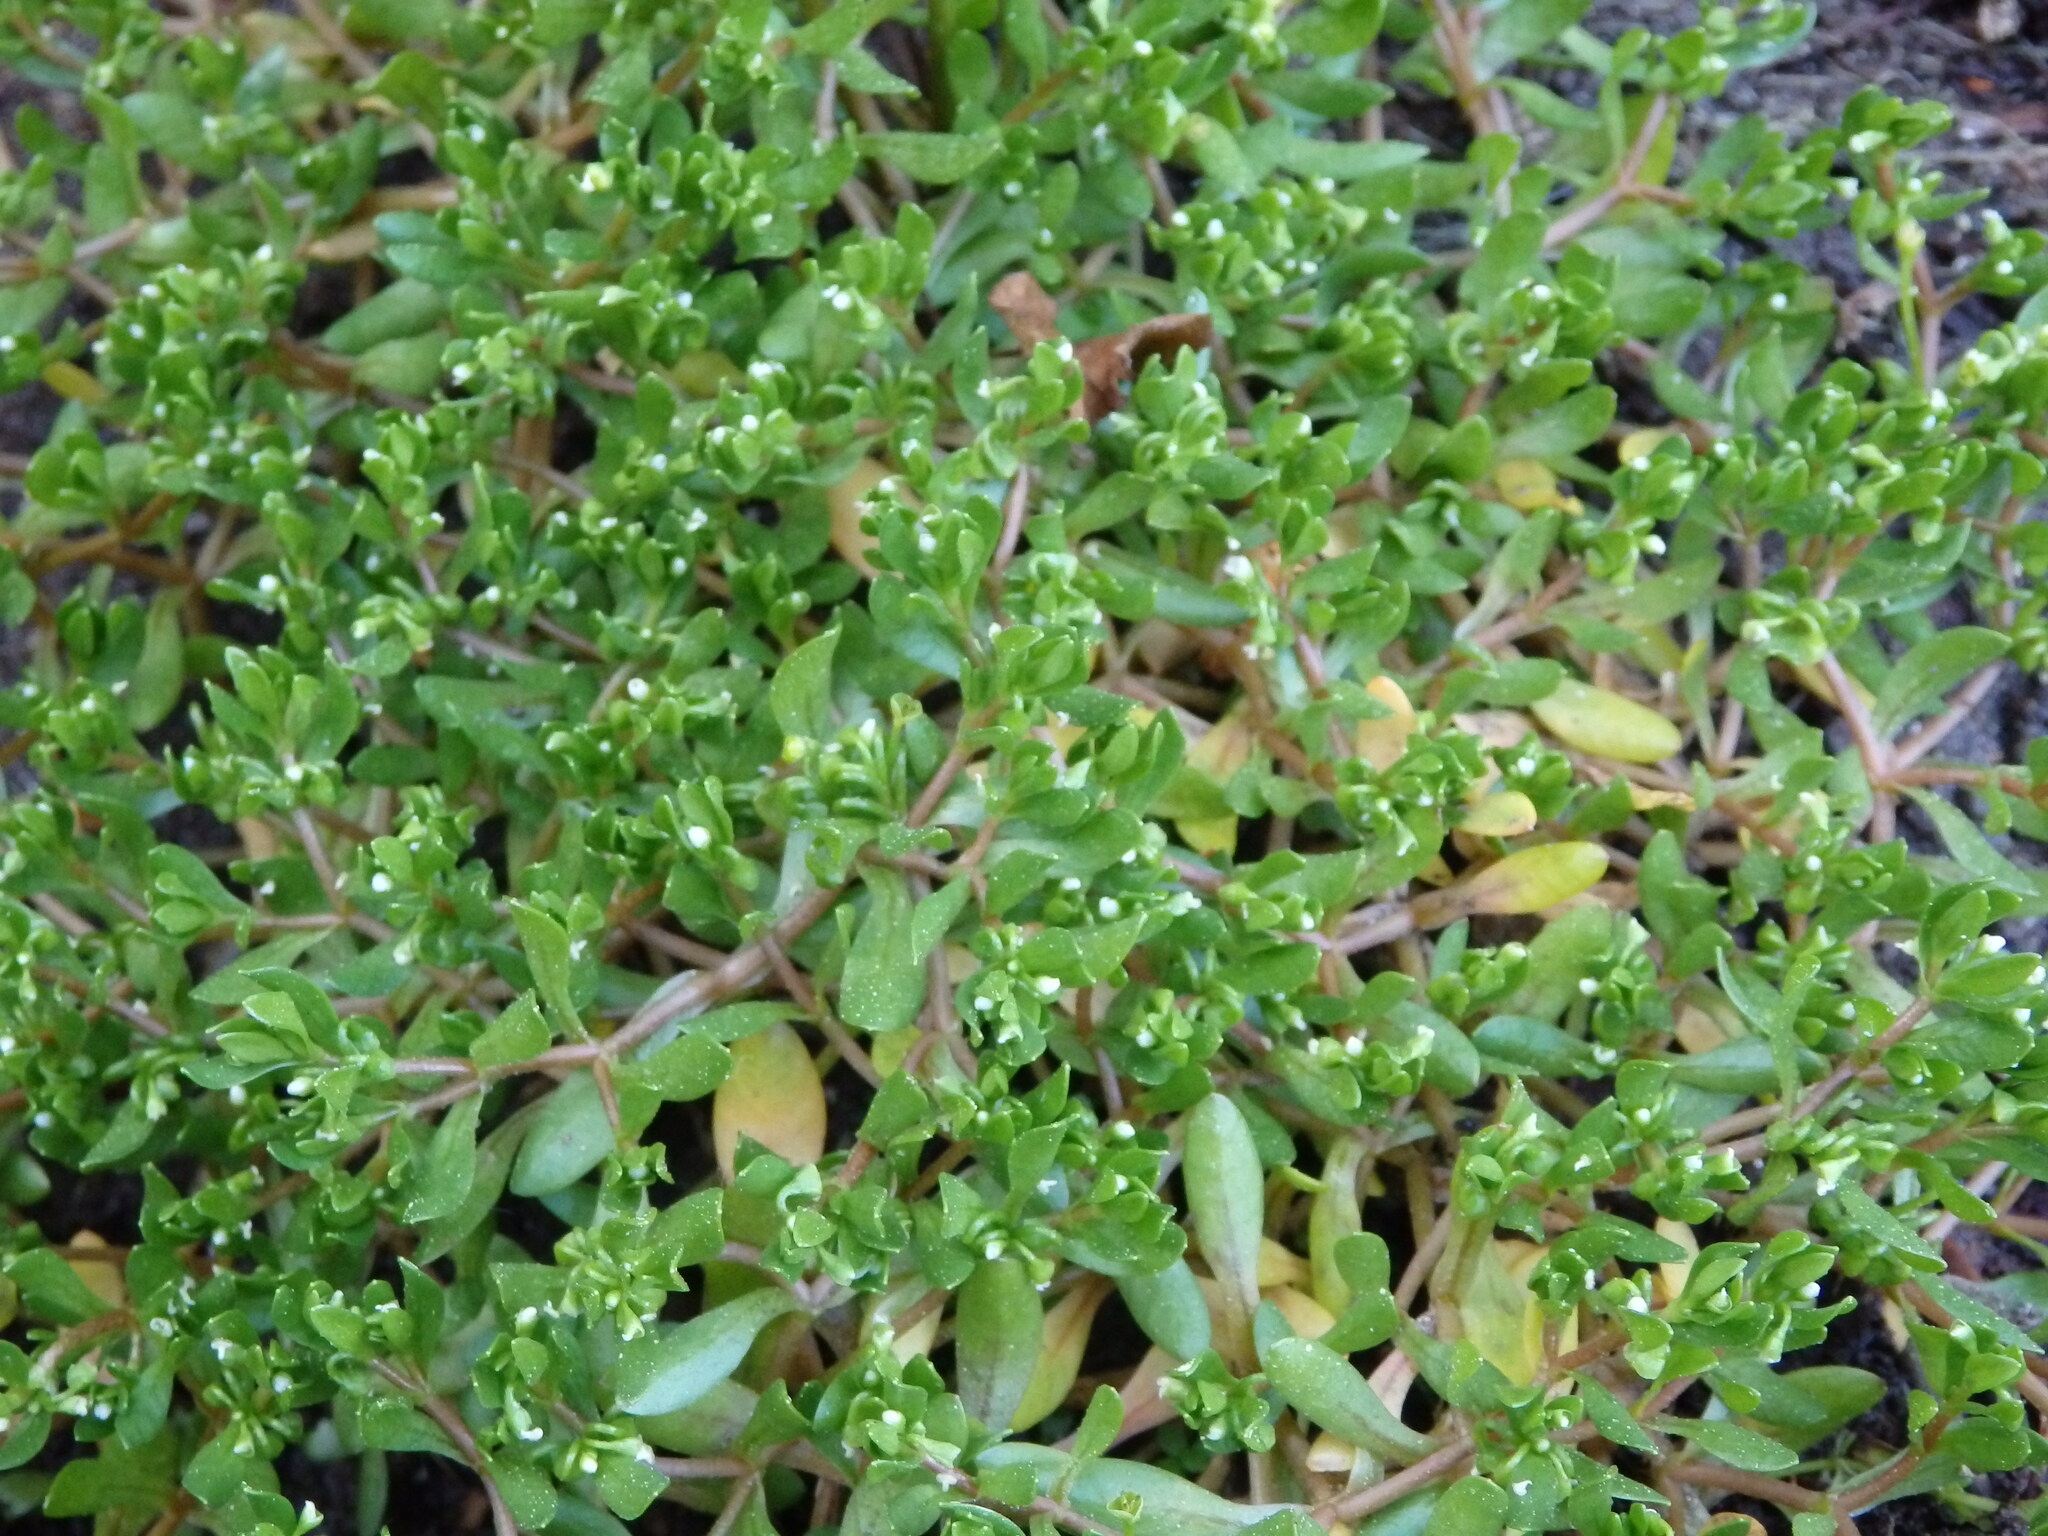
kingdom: Plantae
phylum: Tracheophyta
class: Magnoliopsida
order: Caryophyllales
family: Montiaceae
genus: Montia
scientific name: Montia fontana
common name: Blinks
